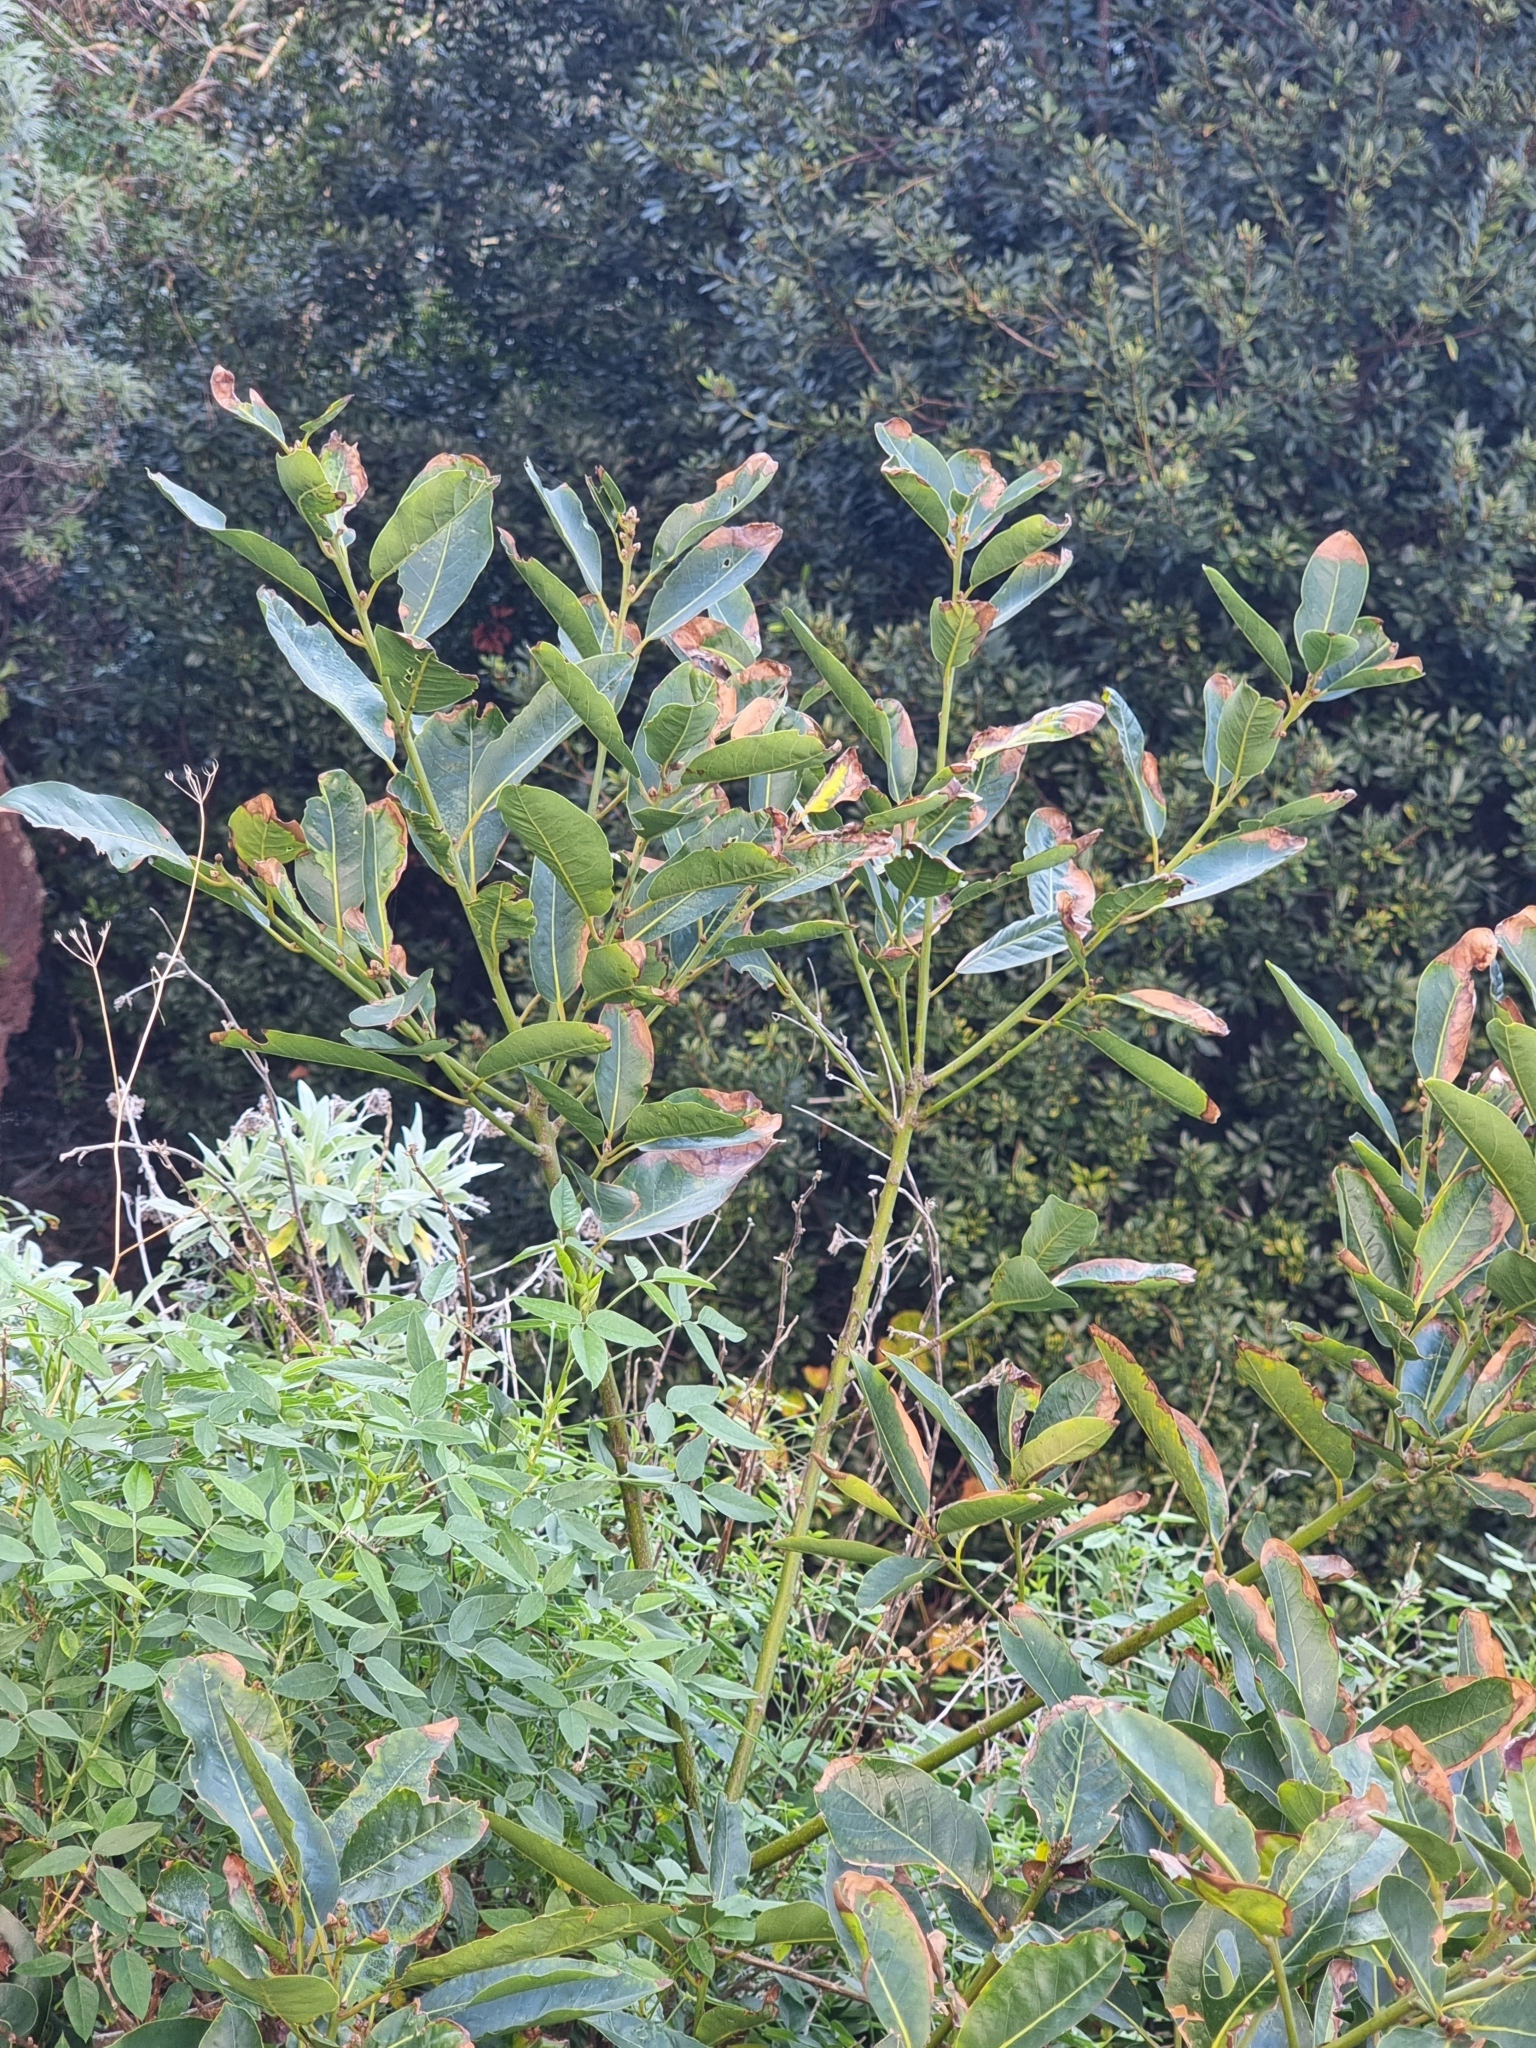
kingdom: Plantae
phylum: Tracheophyta
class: Magnoliopsida
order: Laurales
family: Lauraceae
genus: Laurus
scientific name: Laurus novocanariensis
